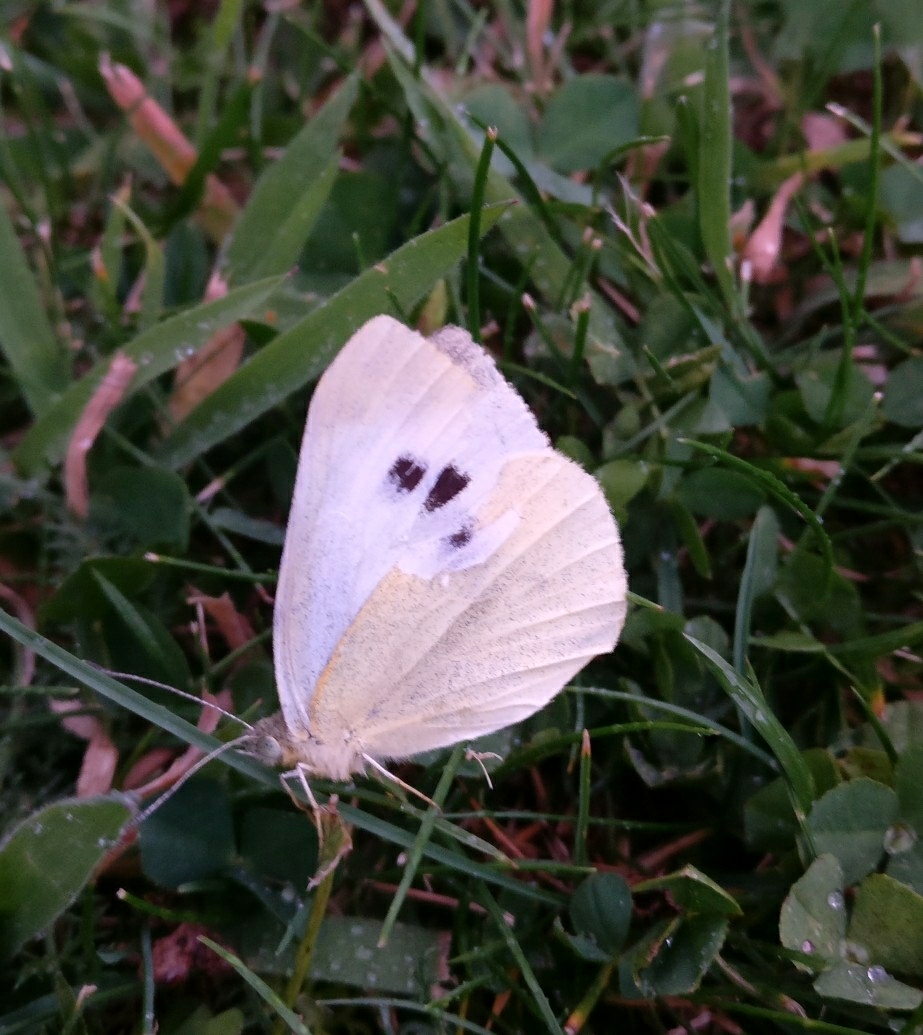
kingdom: Animalia
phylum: Arthropoda
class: Insecta
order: Lepidoptera
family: Pieridae
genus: Pieris
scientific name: Pieris rapae
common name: Small white
